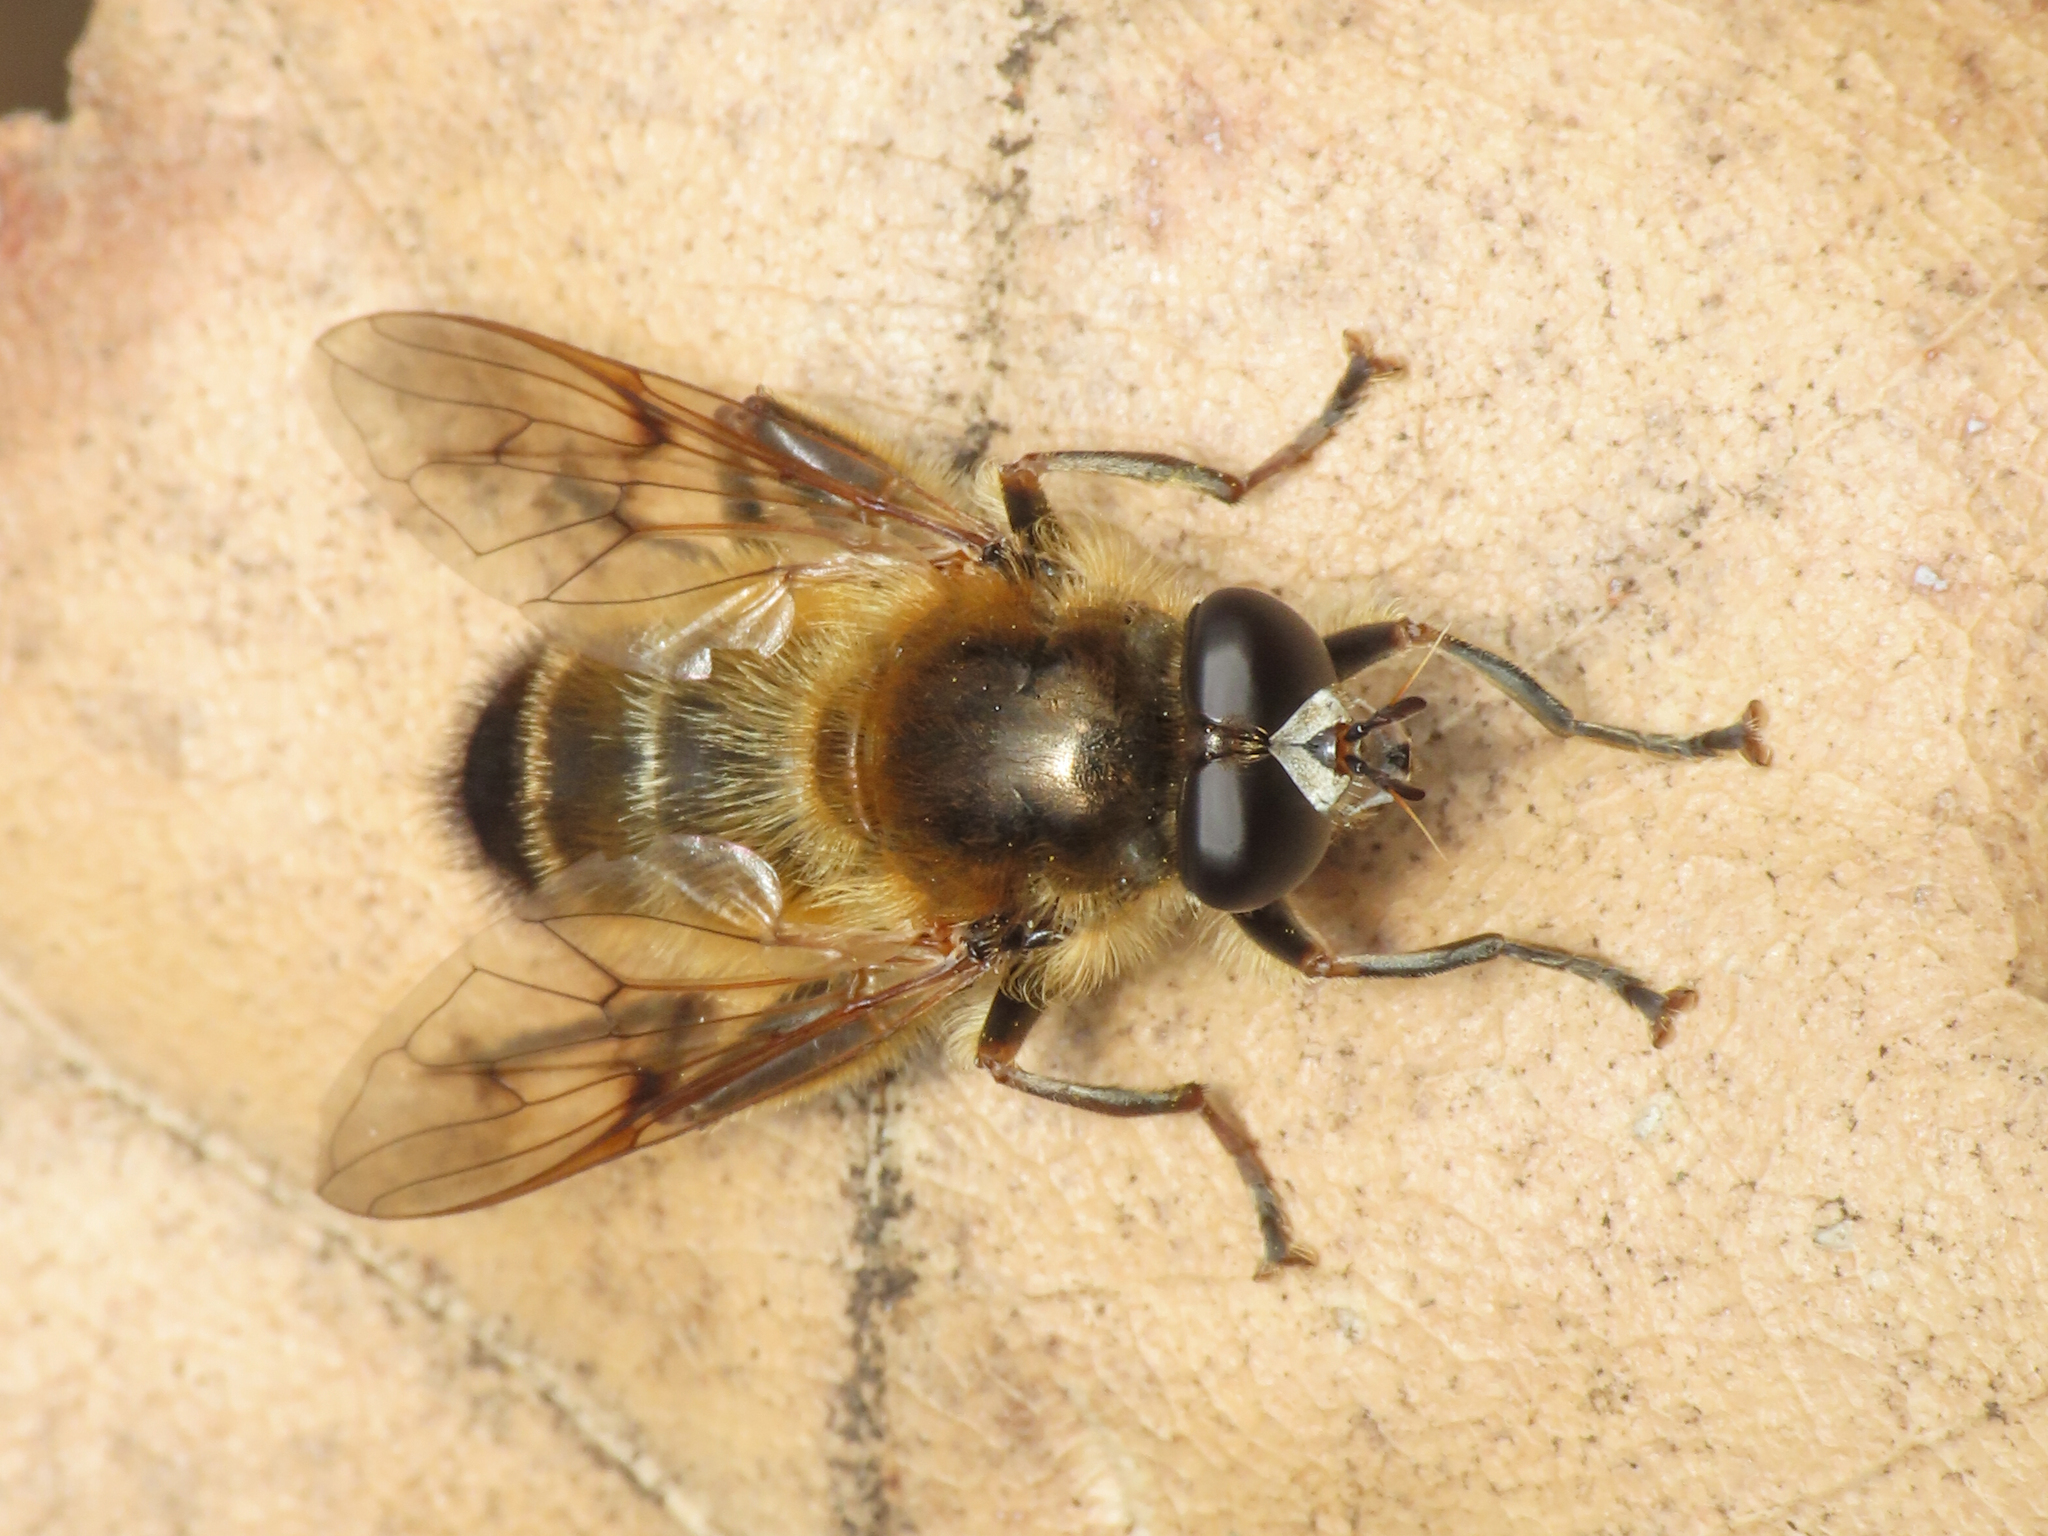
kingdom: Animalia
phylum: Arthropoda
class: Insecta
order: Diptera
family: Syrphidae
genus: Brachypalpus
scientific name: Brachypalpus valgus
